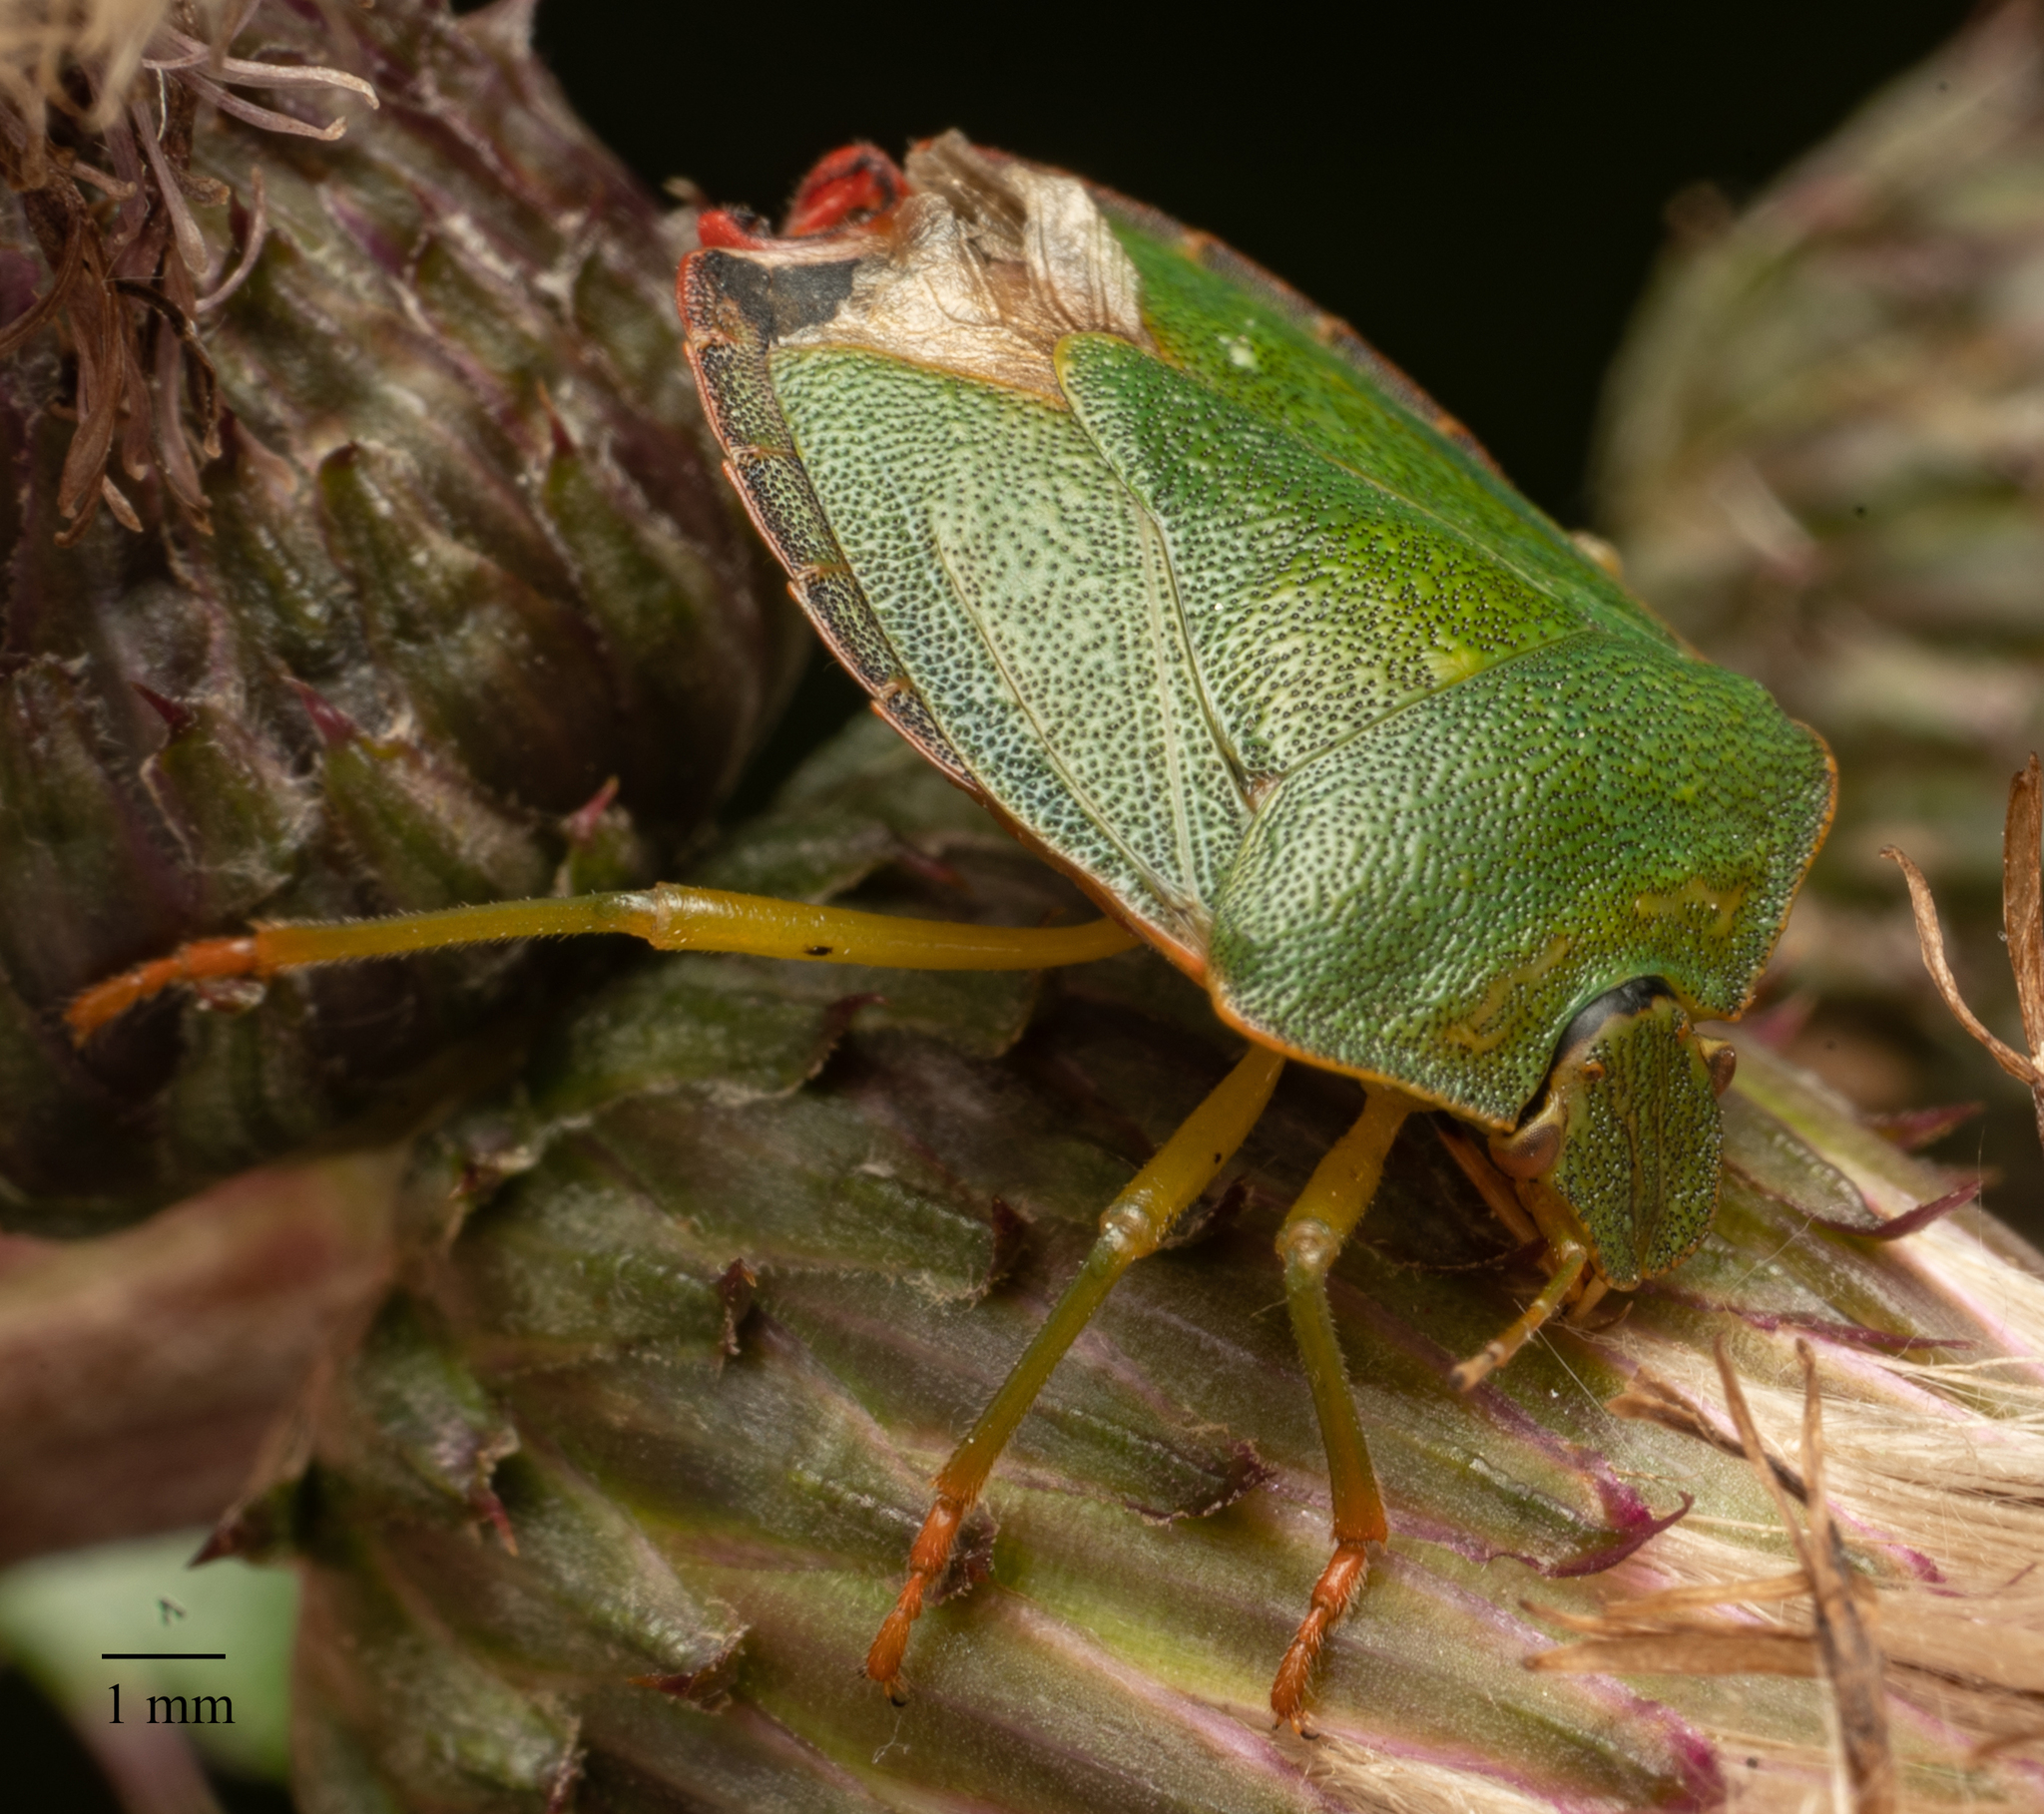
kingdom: Animalia
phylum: Arthropoda
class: Insecta
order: Hemiptera
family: Pentatomidae
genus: Palomena
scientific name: Palomena prasina
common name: Green shieldbug
